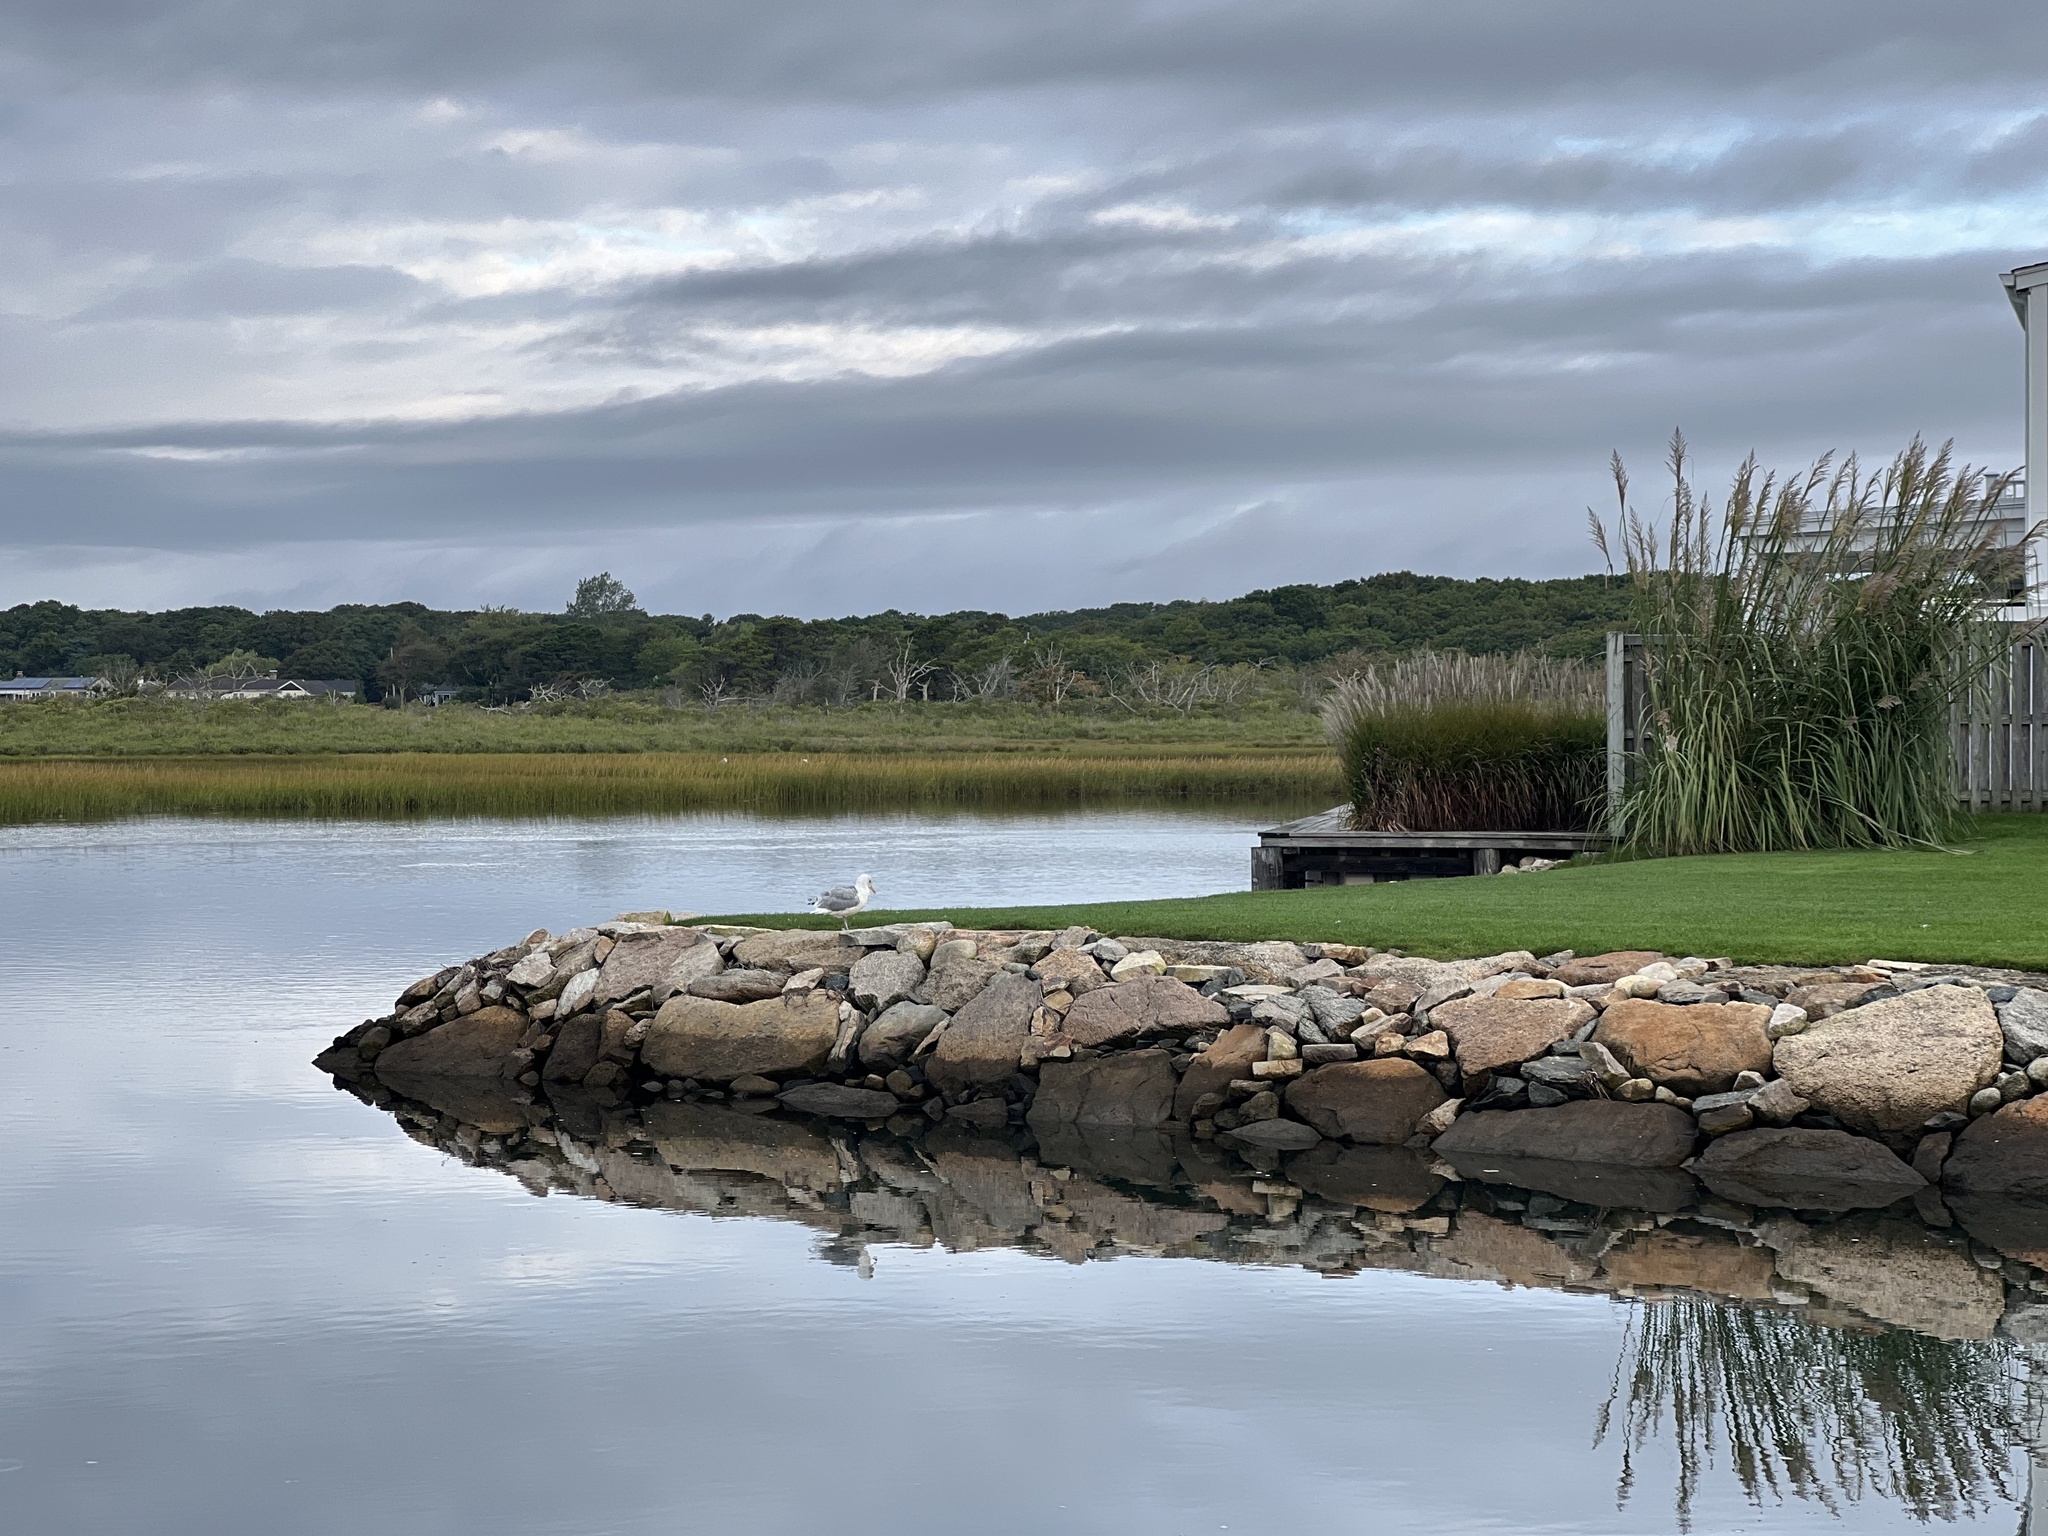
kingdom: Animalia
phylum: Chordata
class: Aves
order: Charadriiformes
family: Laridae
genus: Larus
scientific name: Larus argentatus
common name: Herring gull
